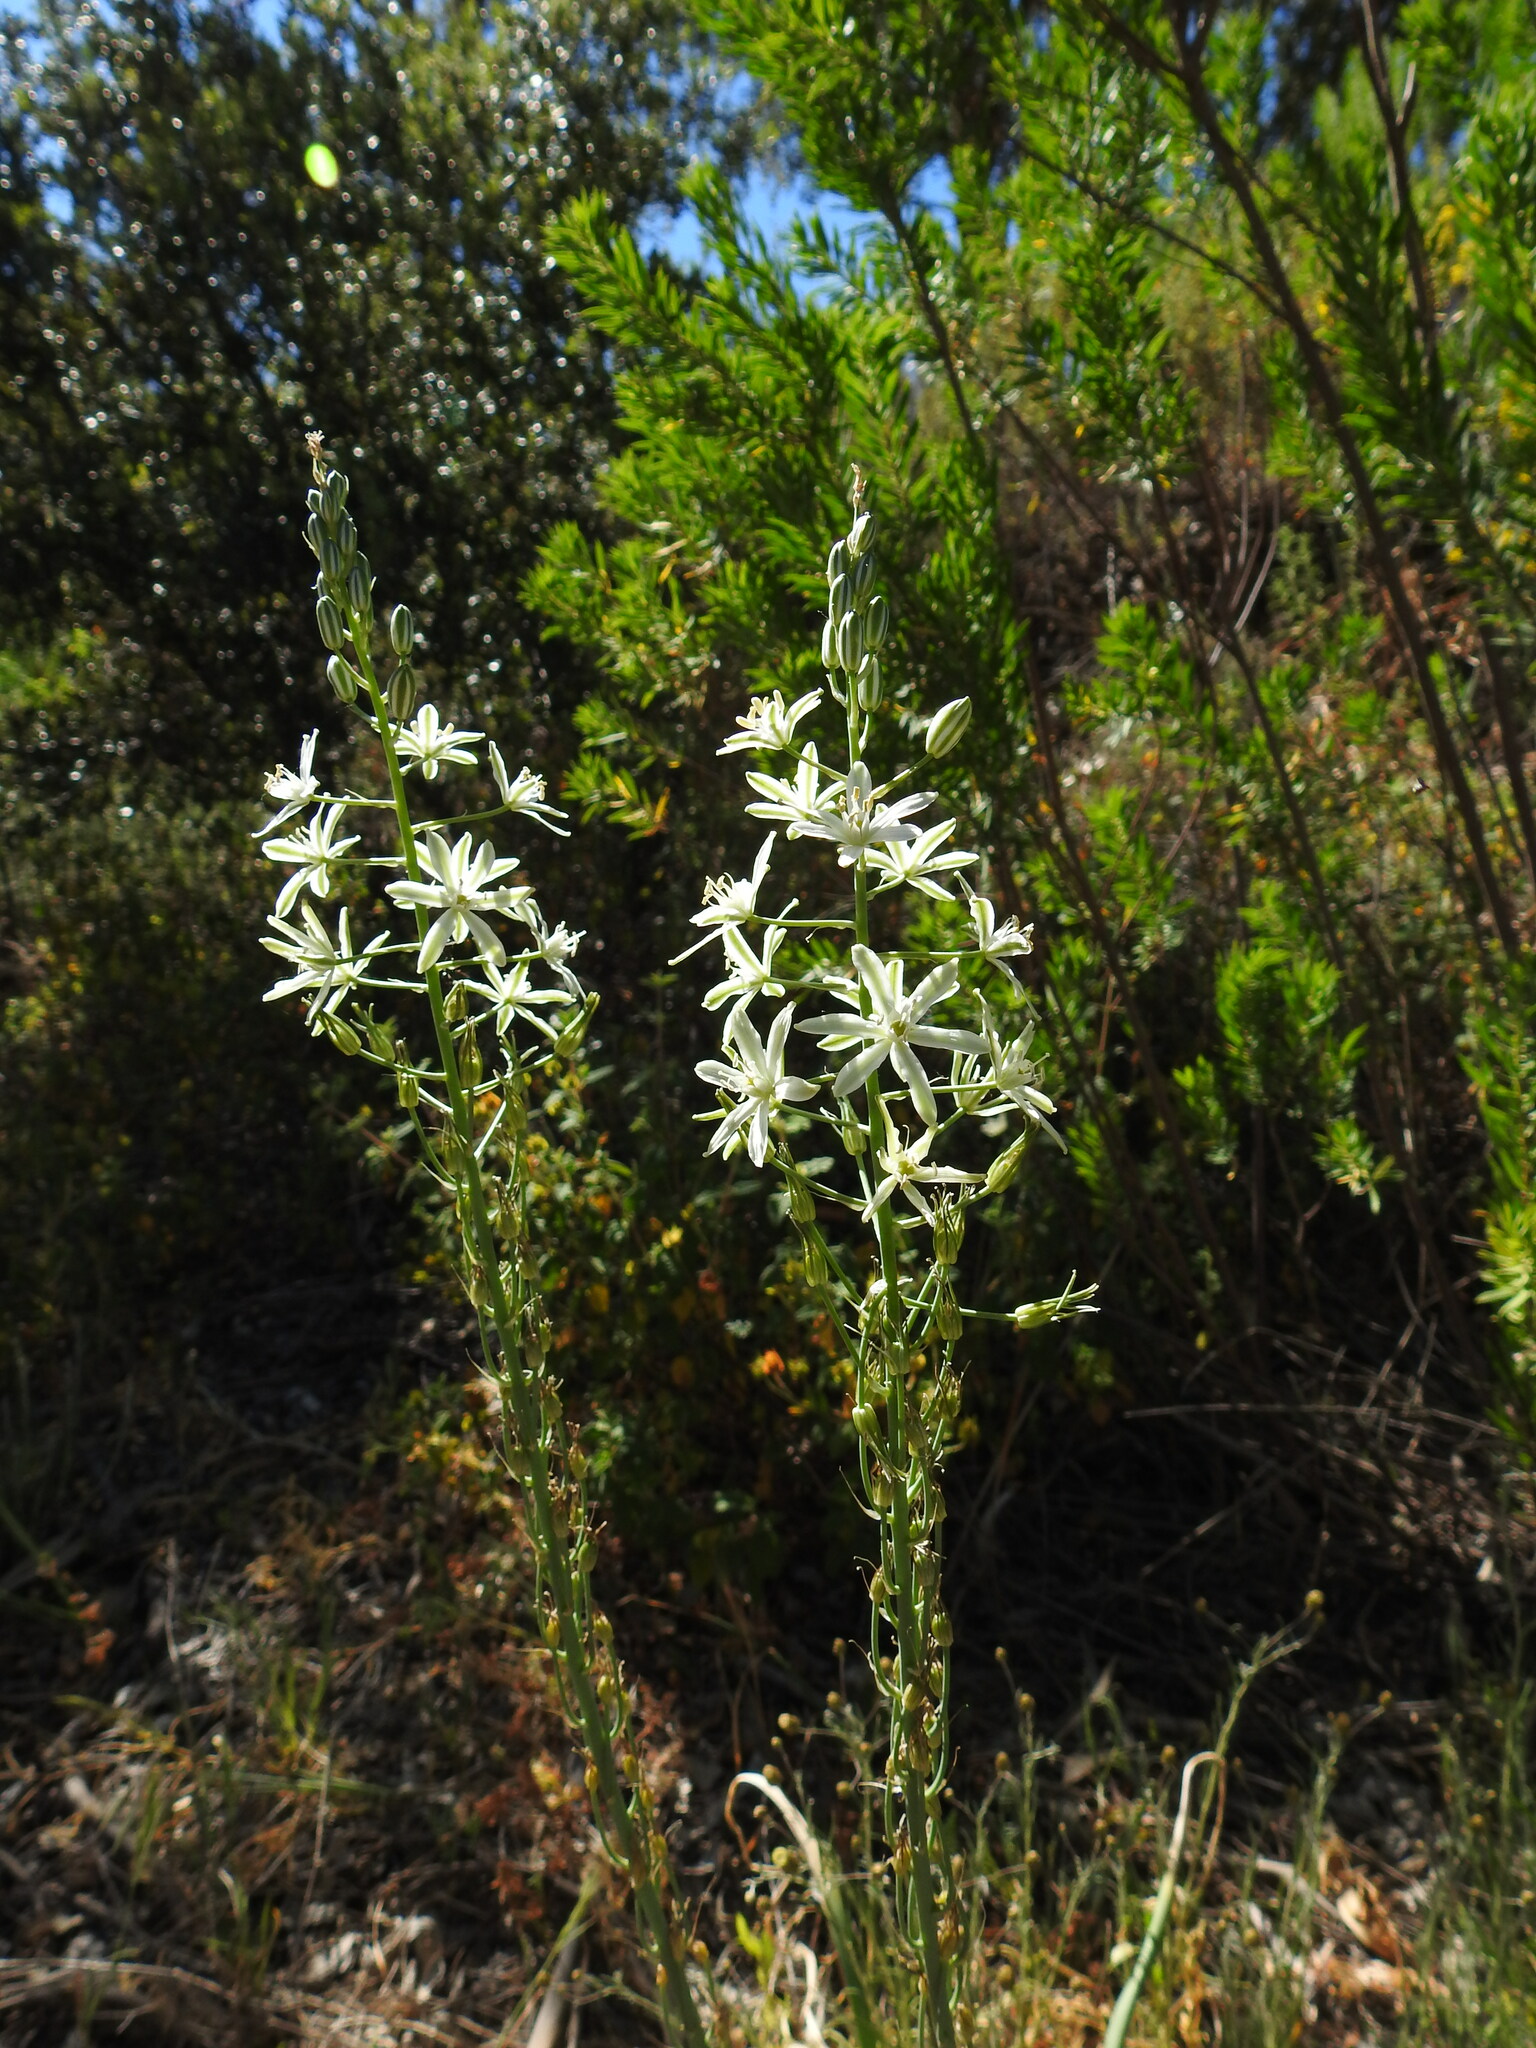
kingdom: Plantae
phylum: Tracheophyta
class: Liliopsida
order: Asparagales
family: Asparagaceae
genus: Ornithogalum
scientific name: Ornithogalum narbonense
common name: Bath-asparagus
